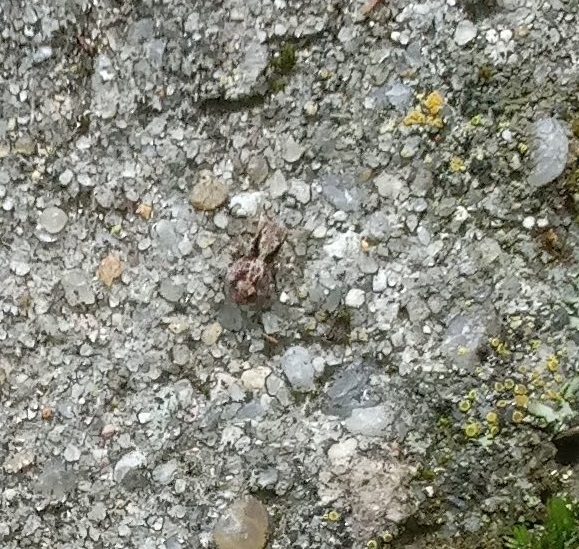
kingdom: Animalia
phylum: Arthropoda
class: Arachnida
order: Araneae
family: Salticidae
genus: Naphrys
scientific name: Naphrys pulex
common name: Flea jumping spider
